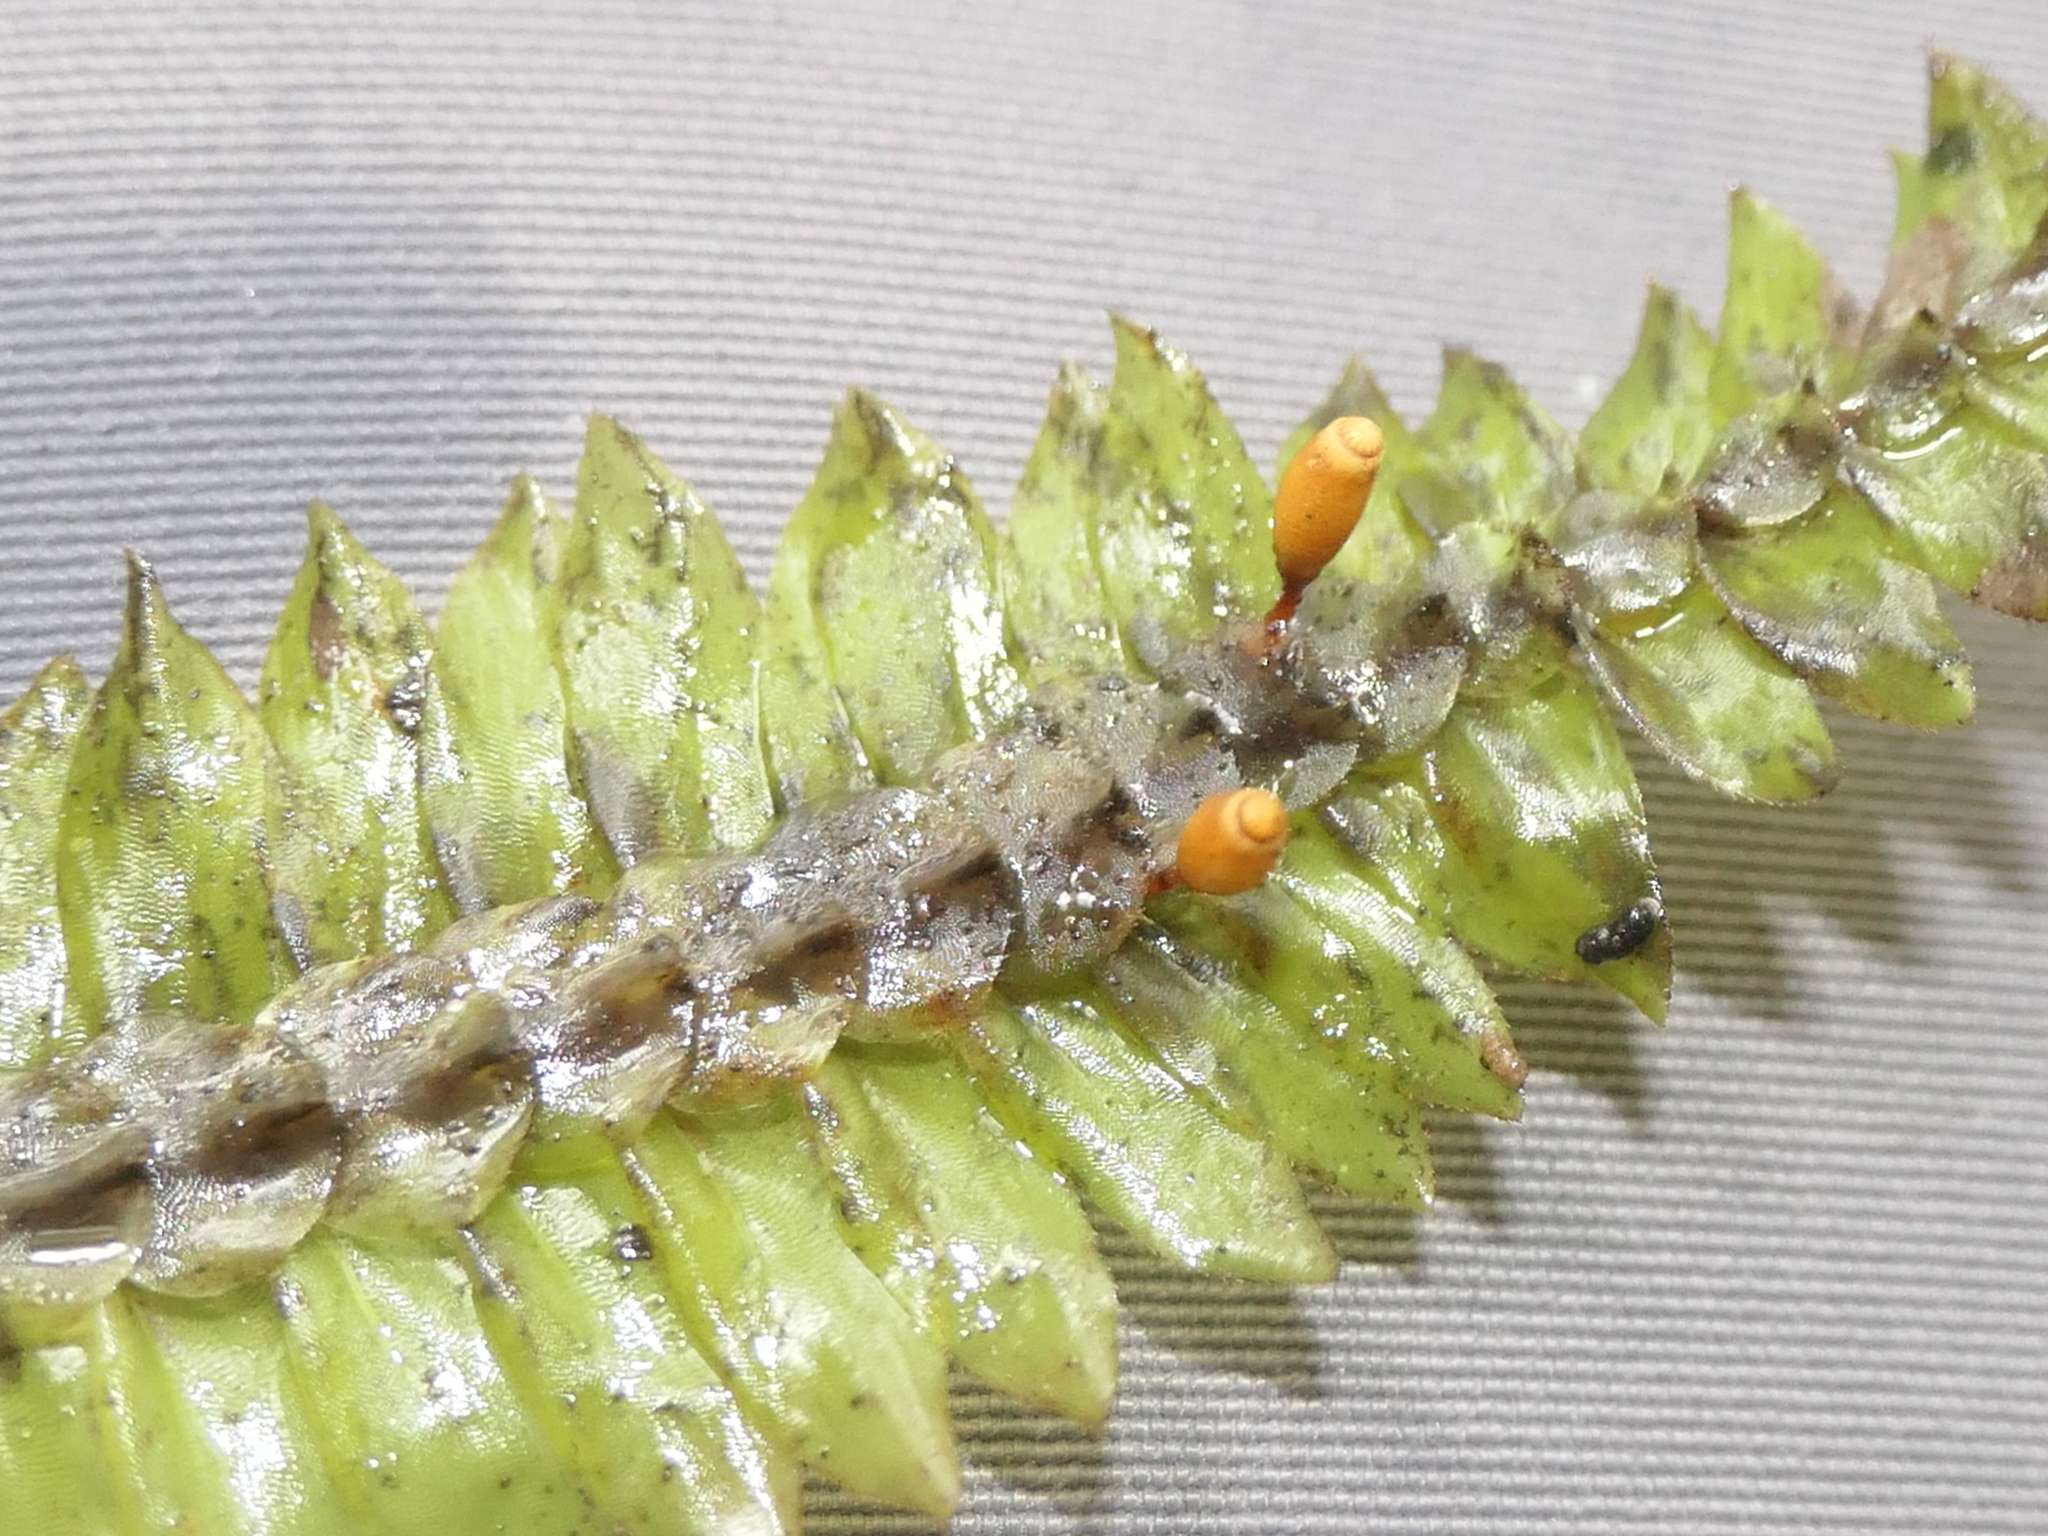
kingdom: Plantae
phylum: Bryophyta
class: Bryopsida
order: Hypopterygiales
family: Hypopterygiaceae
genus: Cyathophorum
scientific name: Cyathophorum bulbosum
